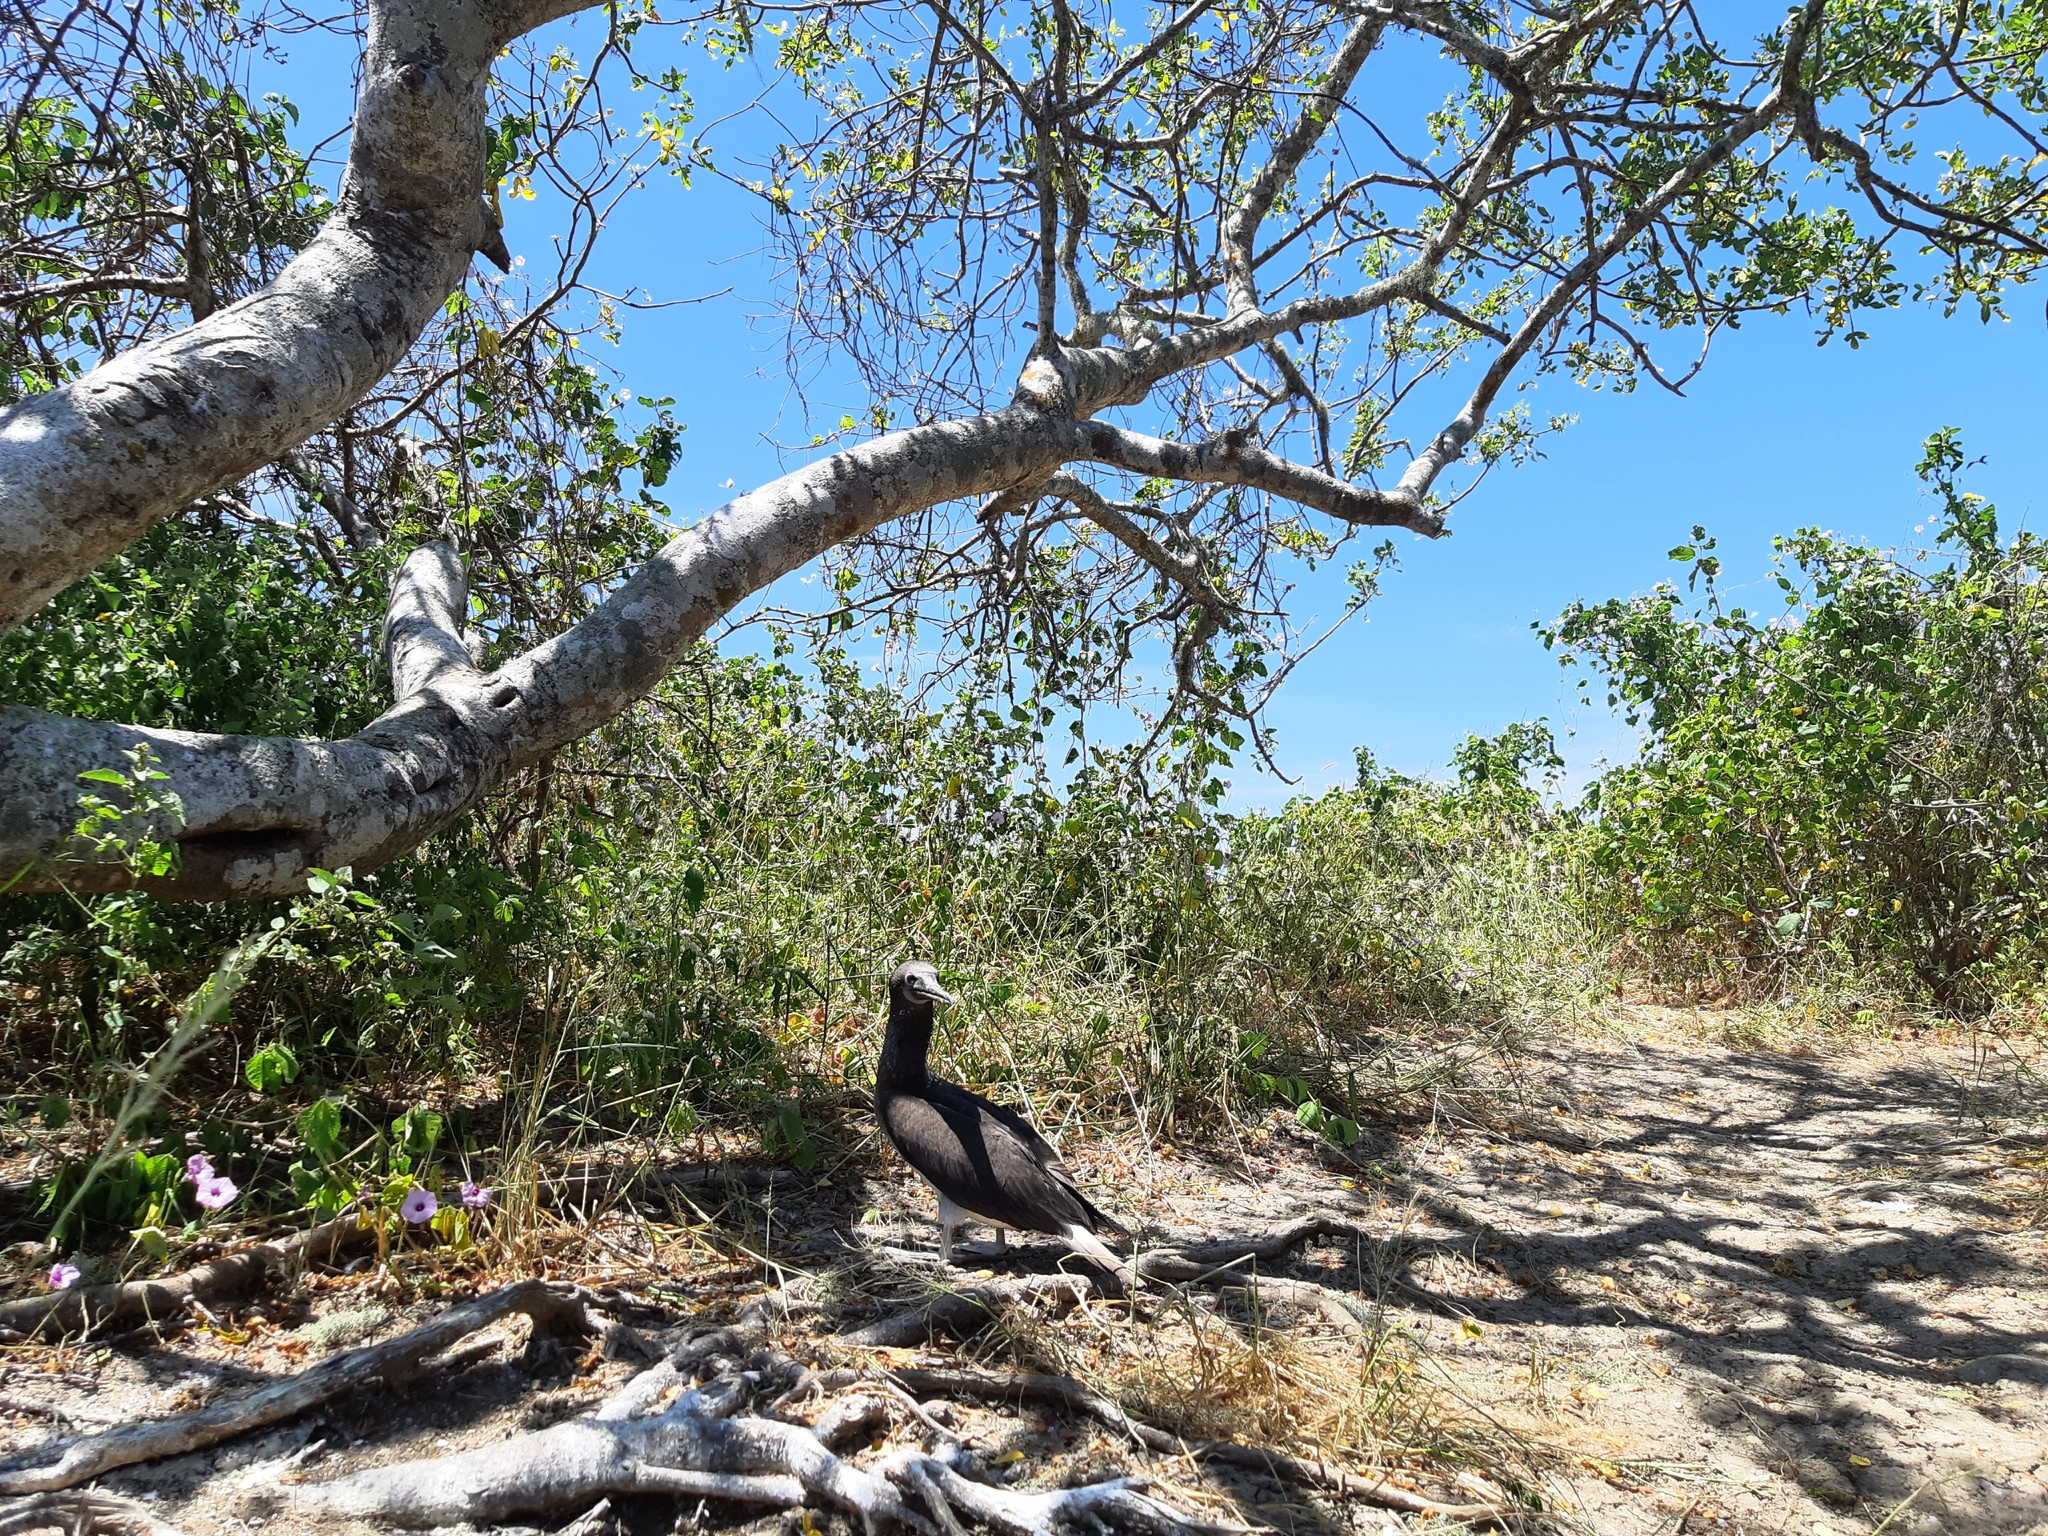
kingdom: Plantae
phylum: Tracheophyta
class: Magnoliopsida
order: Sapindales
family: Burseraceae
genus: Bursera
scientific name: Bursera graveolens
